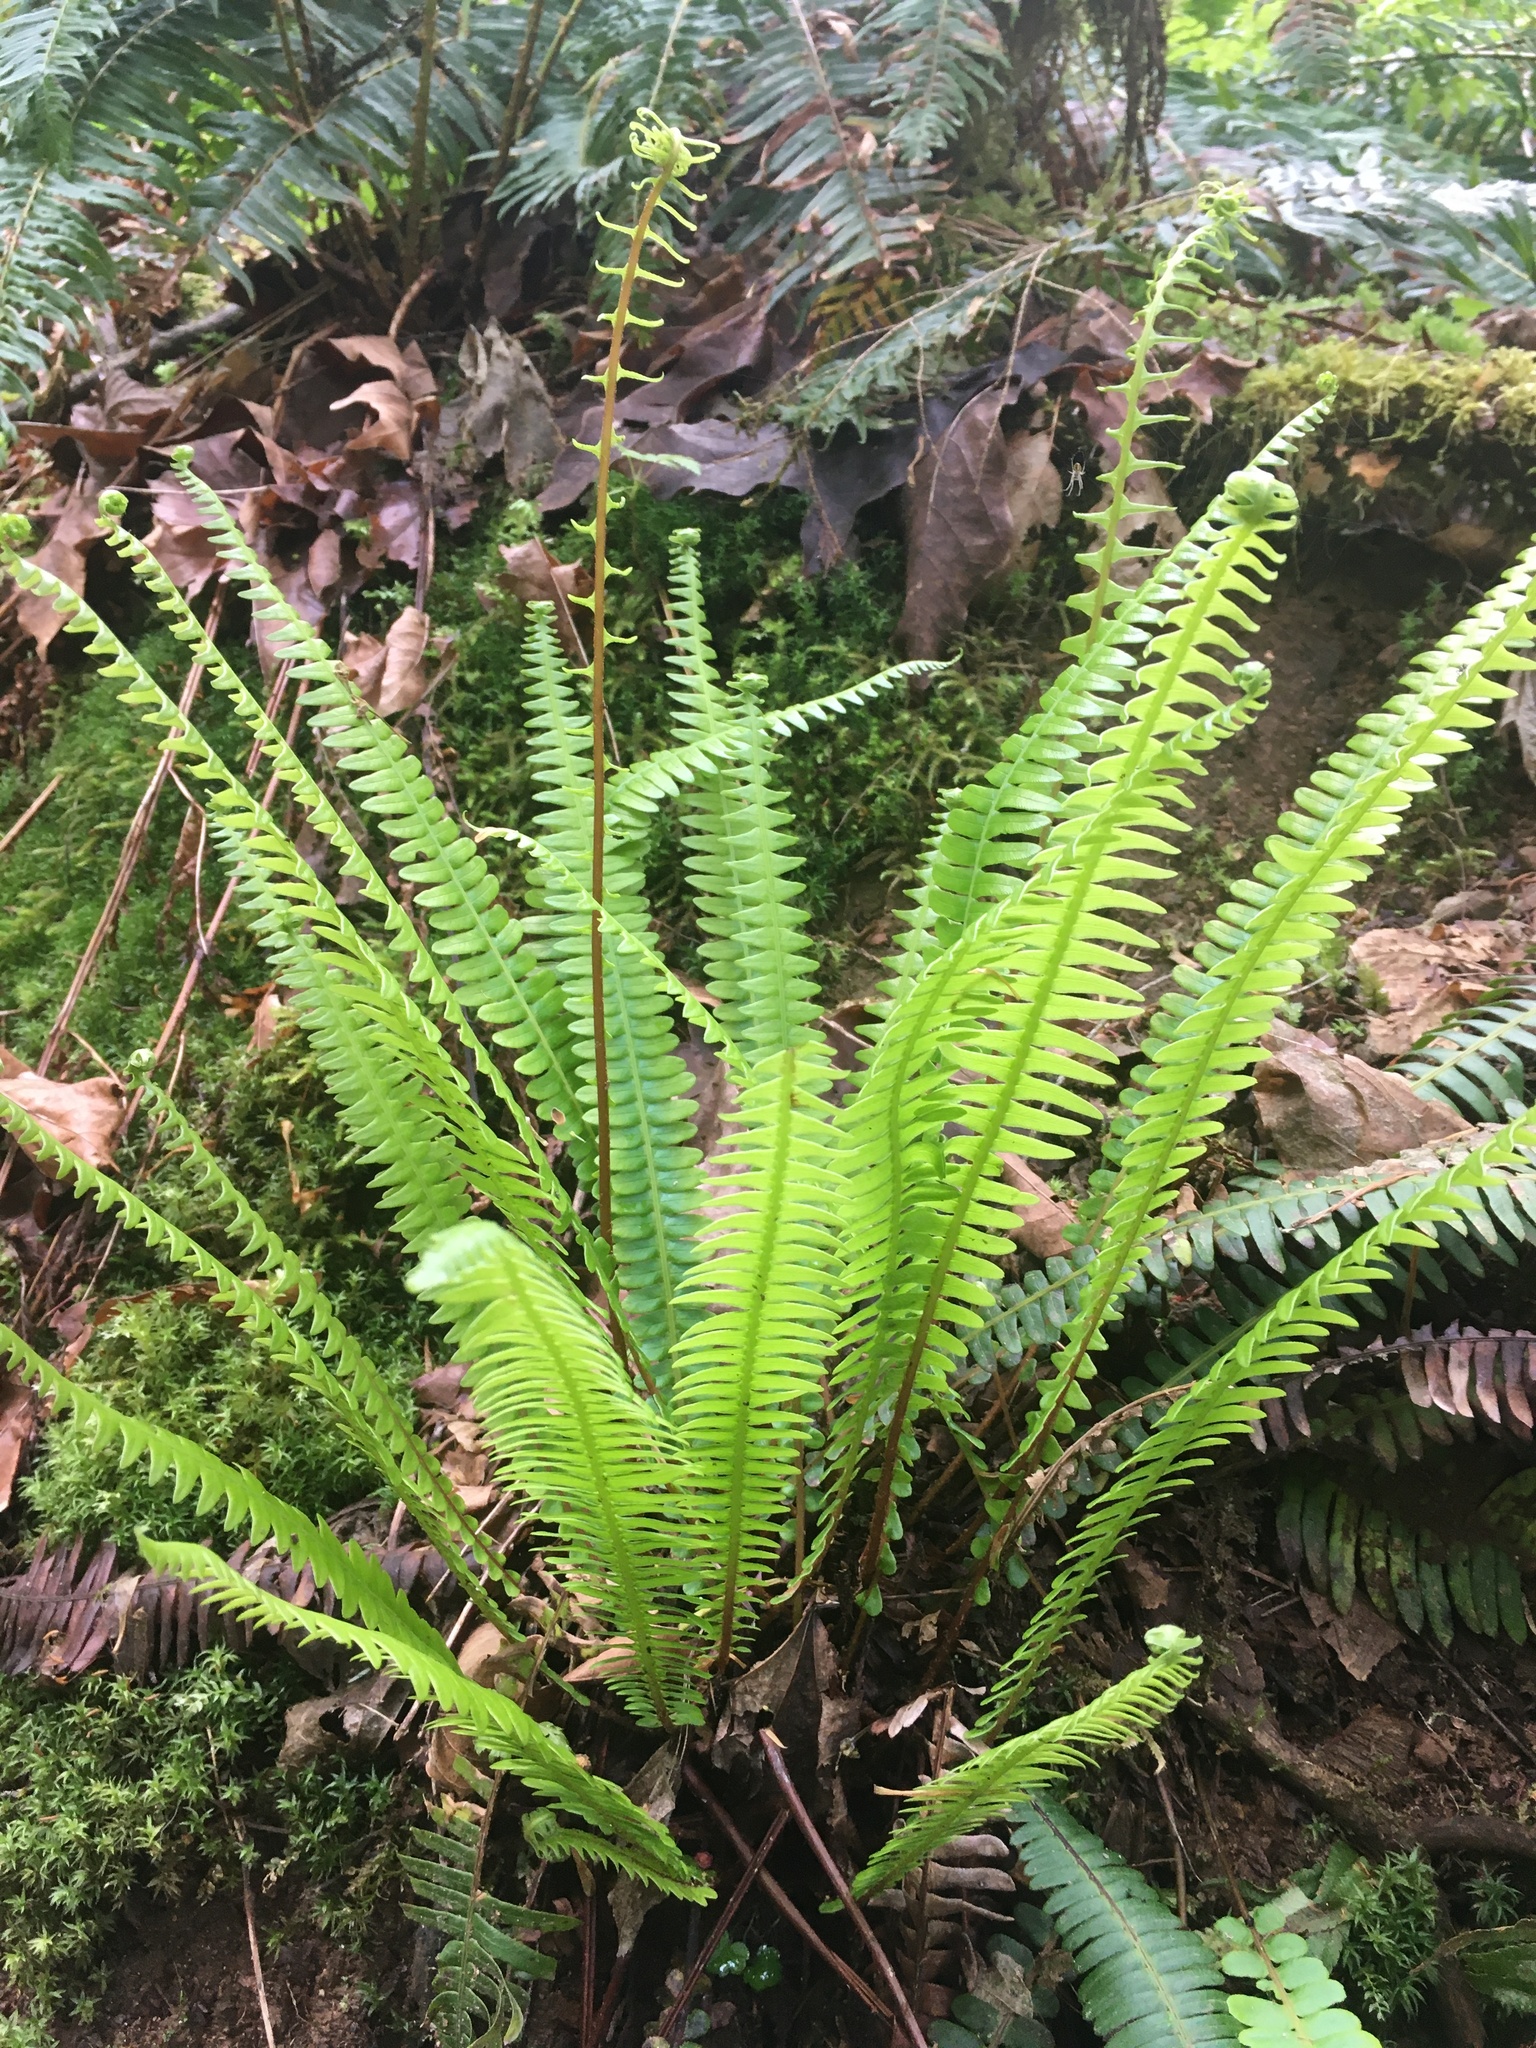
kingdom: Plantae
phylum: Tracheophyta
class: Polypodiopsida
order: Polypodiales
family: Blechnaceae
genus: Struthiopteris
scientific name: Struthiopteris spicant
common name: Deer fern
